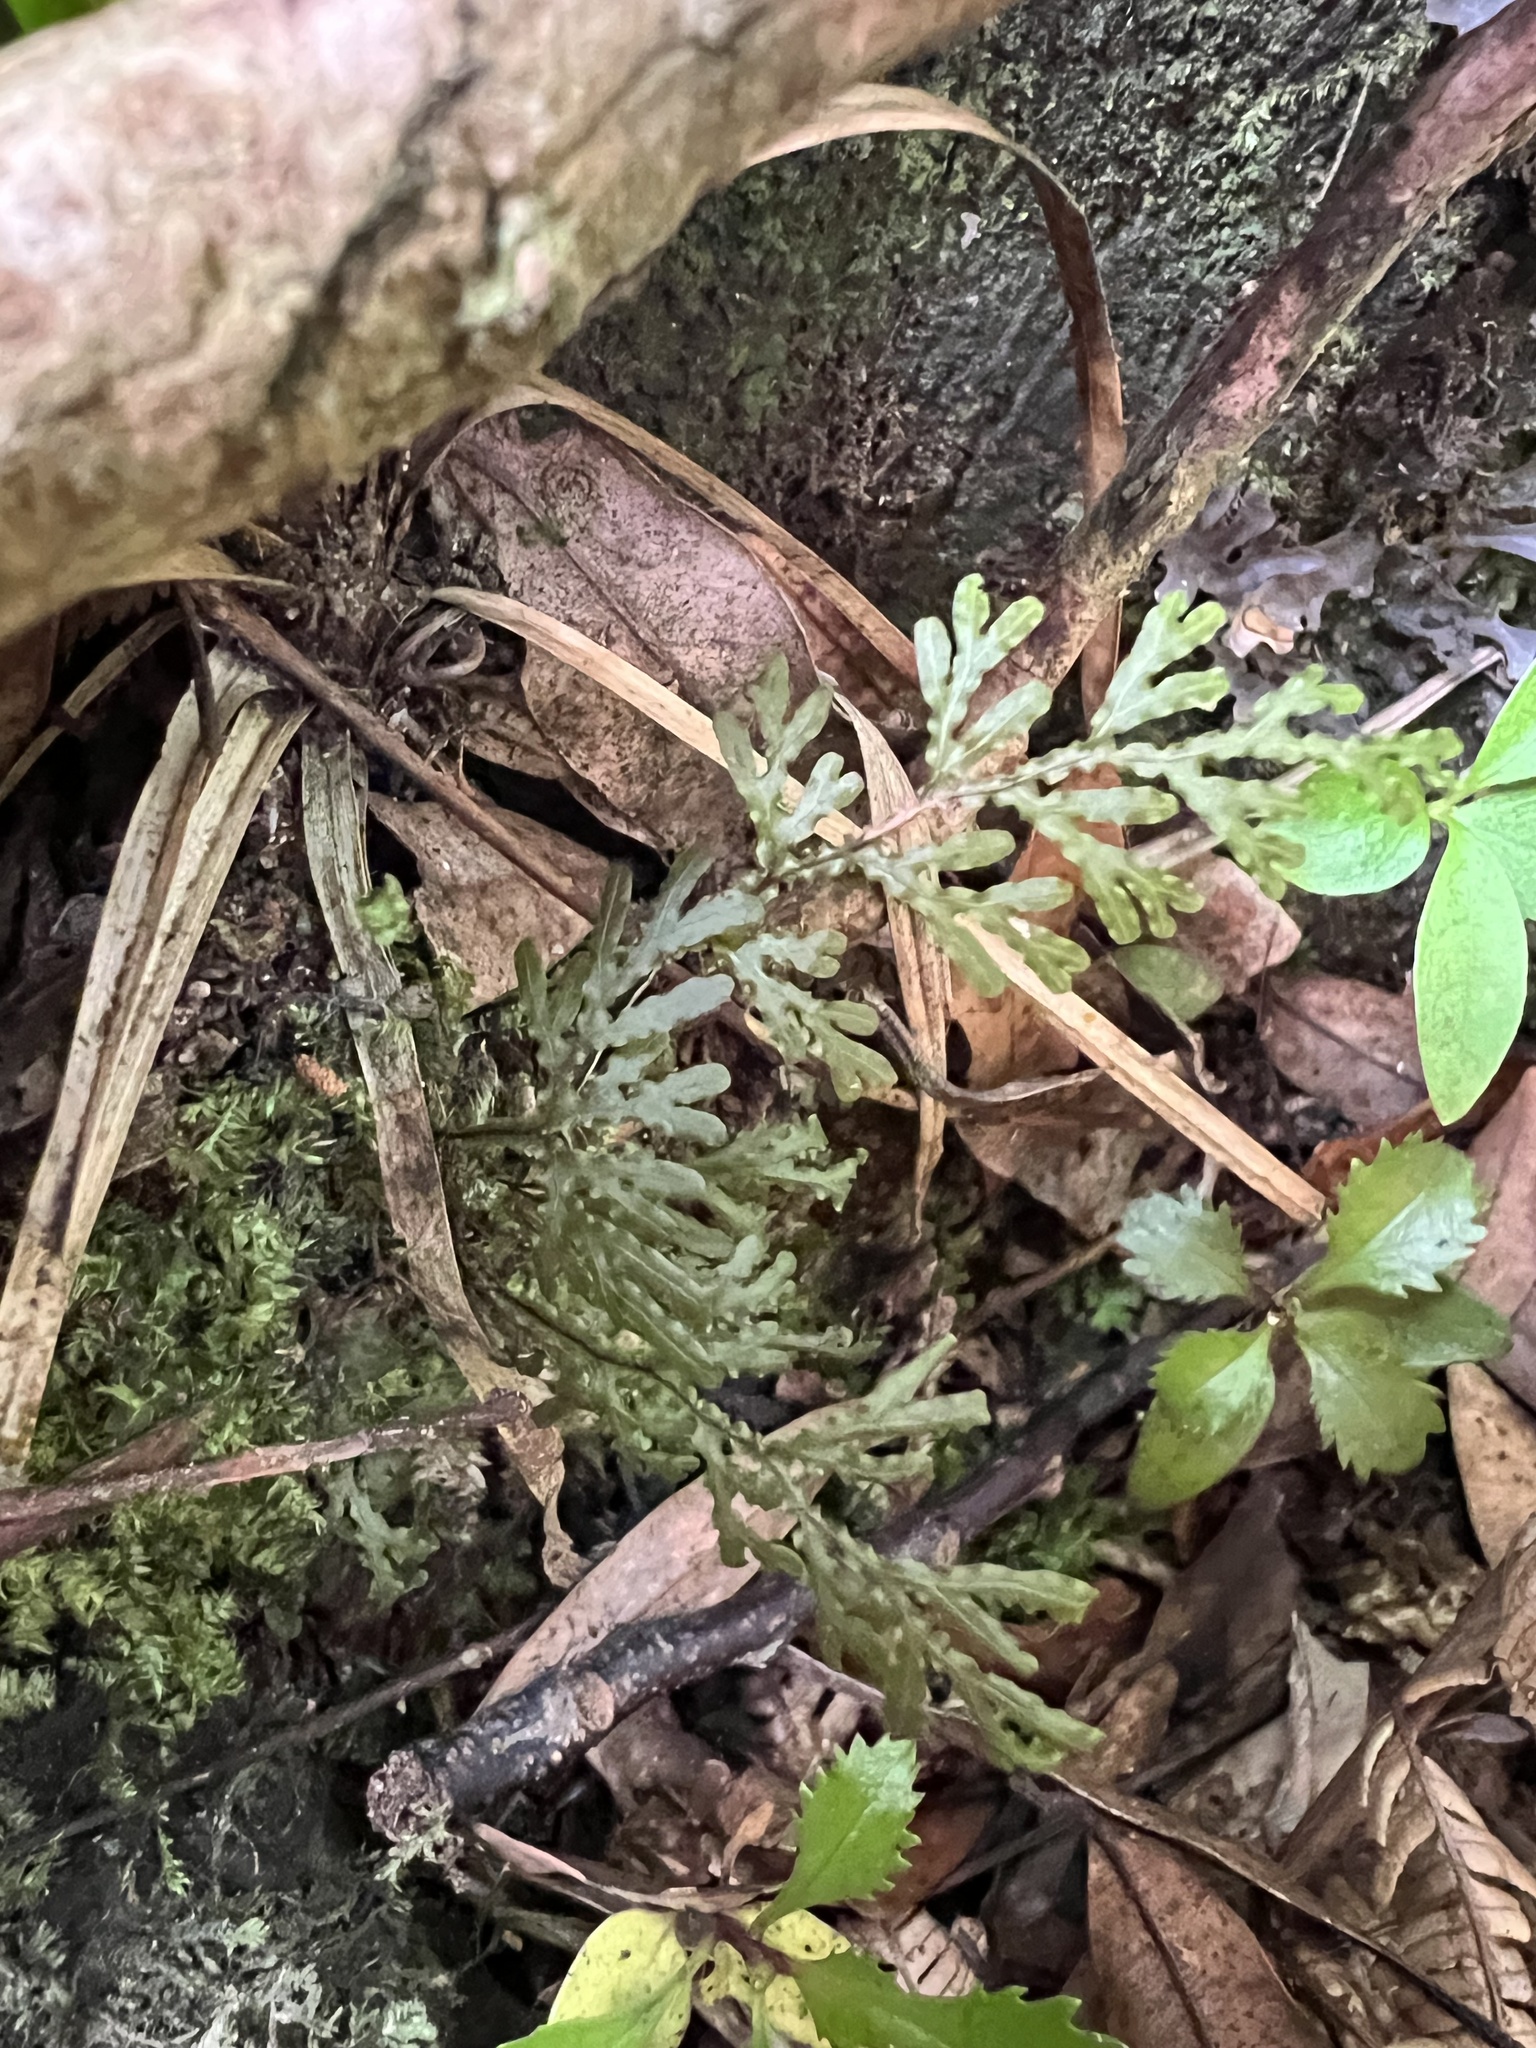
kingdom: Plantae
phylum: Tracheophyta
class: Polypodiopsida
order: Hymenophyllales
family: Hymenophyllaceae
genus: Hymenophyllum
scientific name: Hymenophyllum flexuosum
